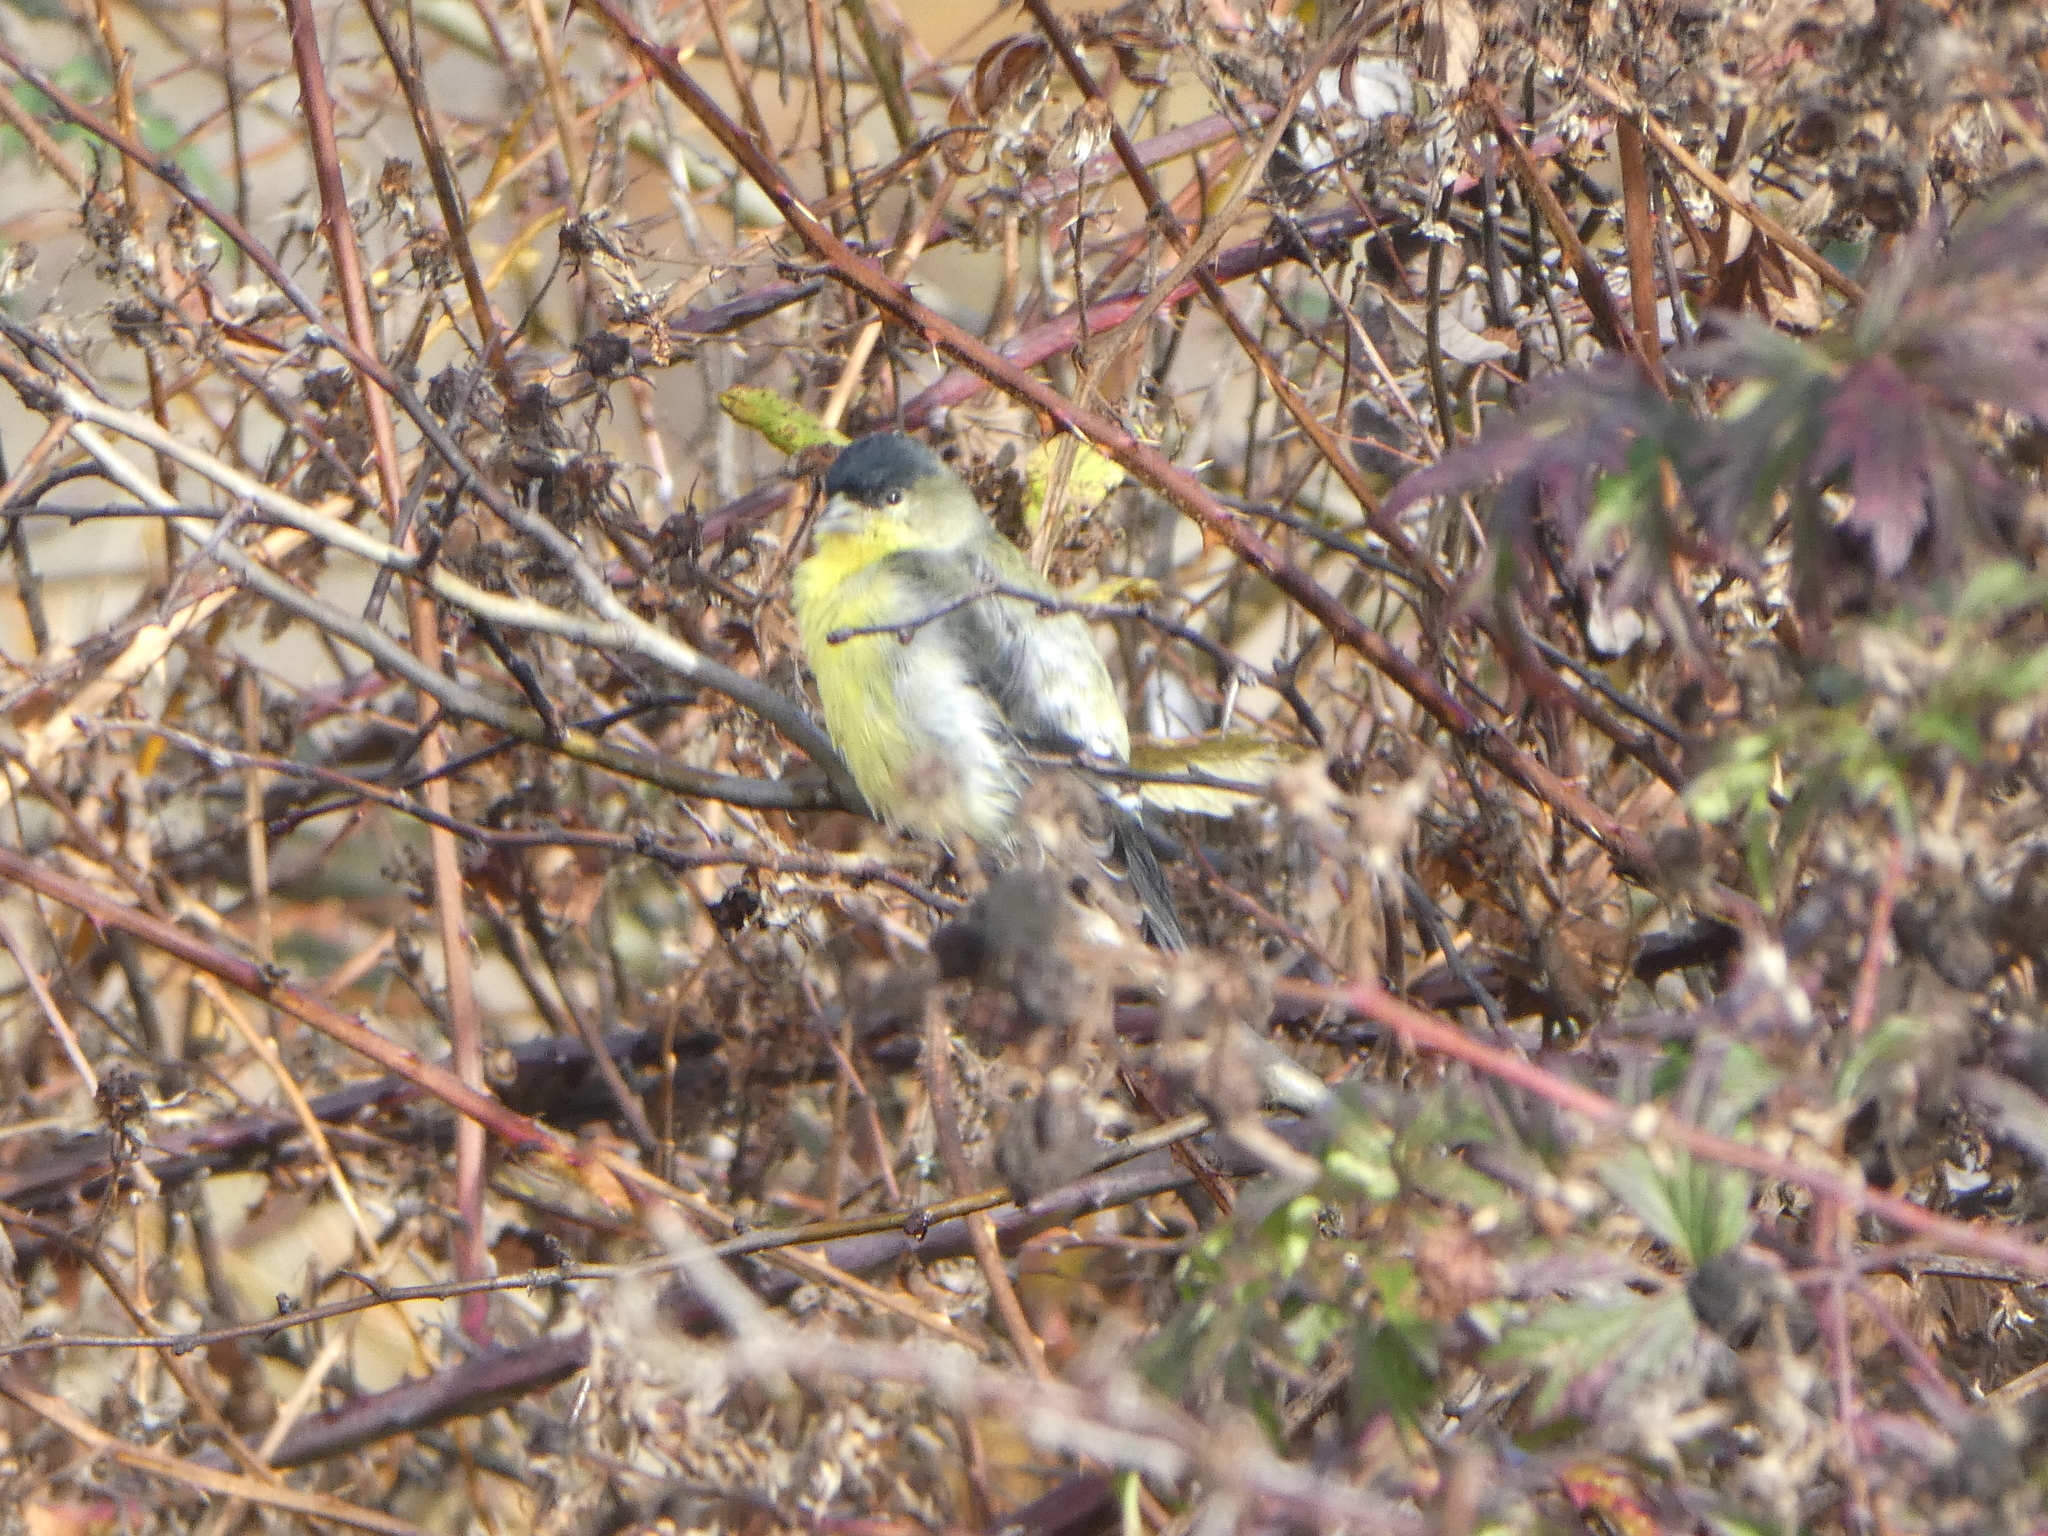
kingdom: Animalia
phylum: Chordata
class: Aves
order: Passeriformes
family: Fringillidae
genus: Spinus
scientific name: Spinus psaltria
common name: Lesser goldfinch
